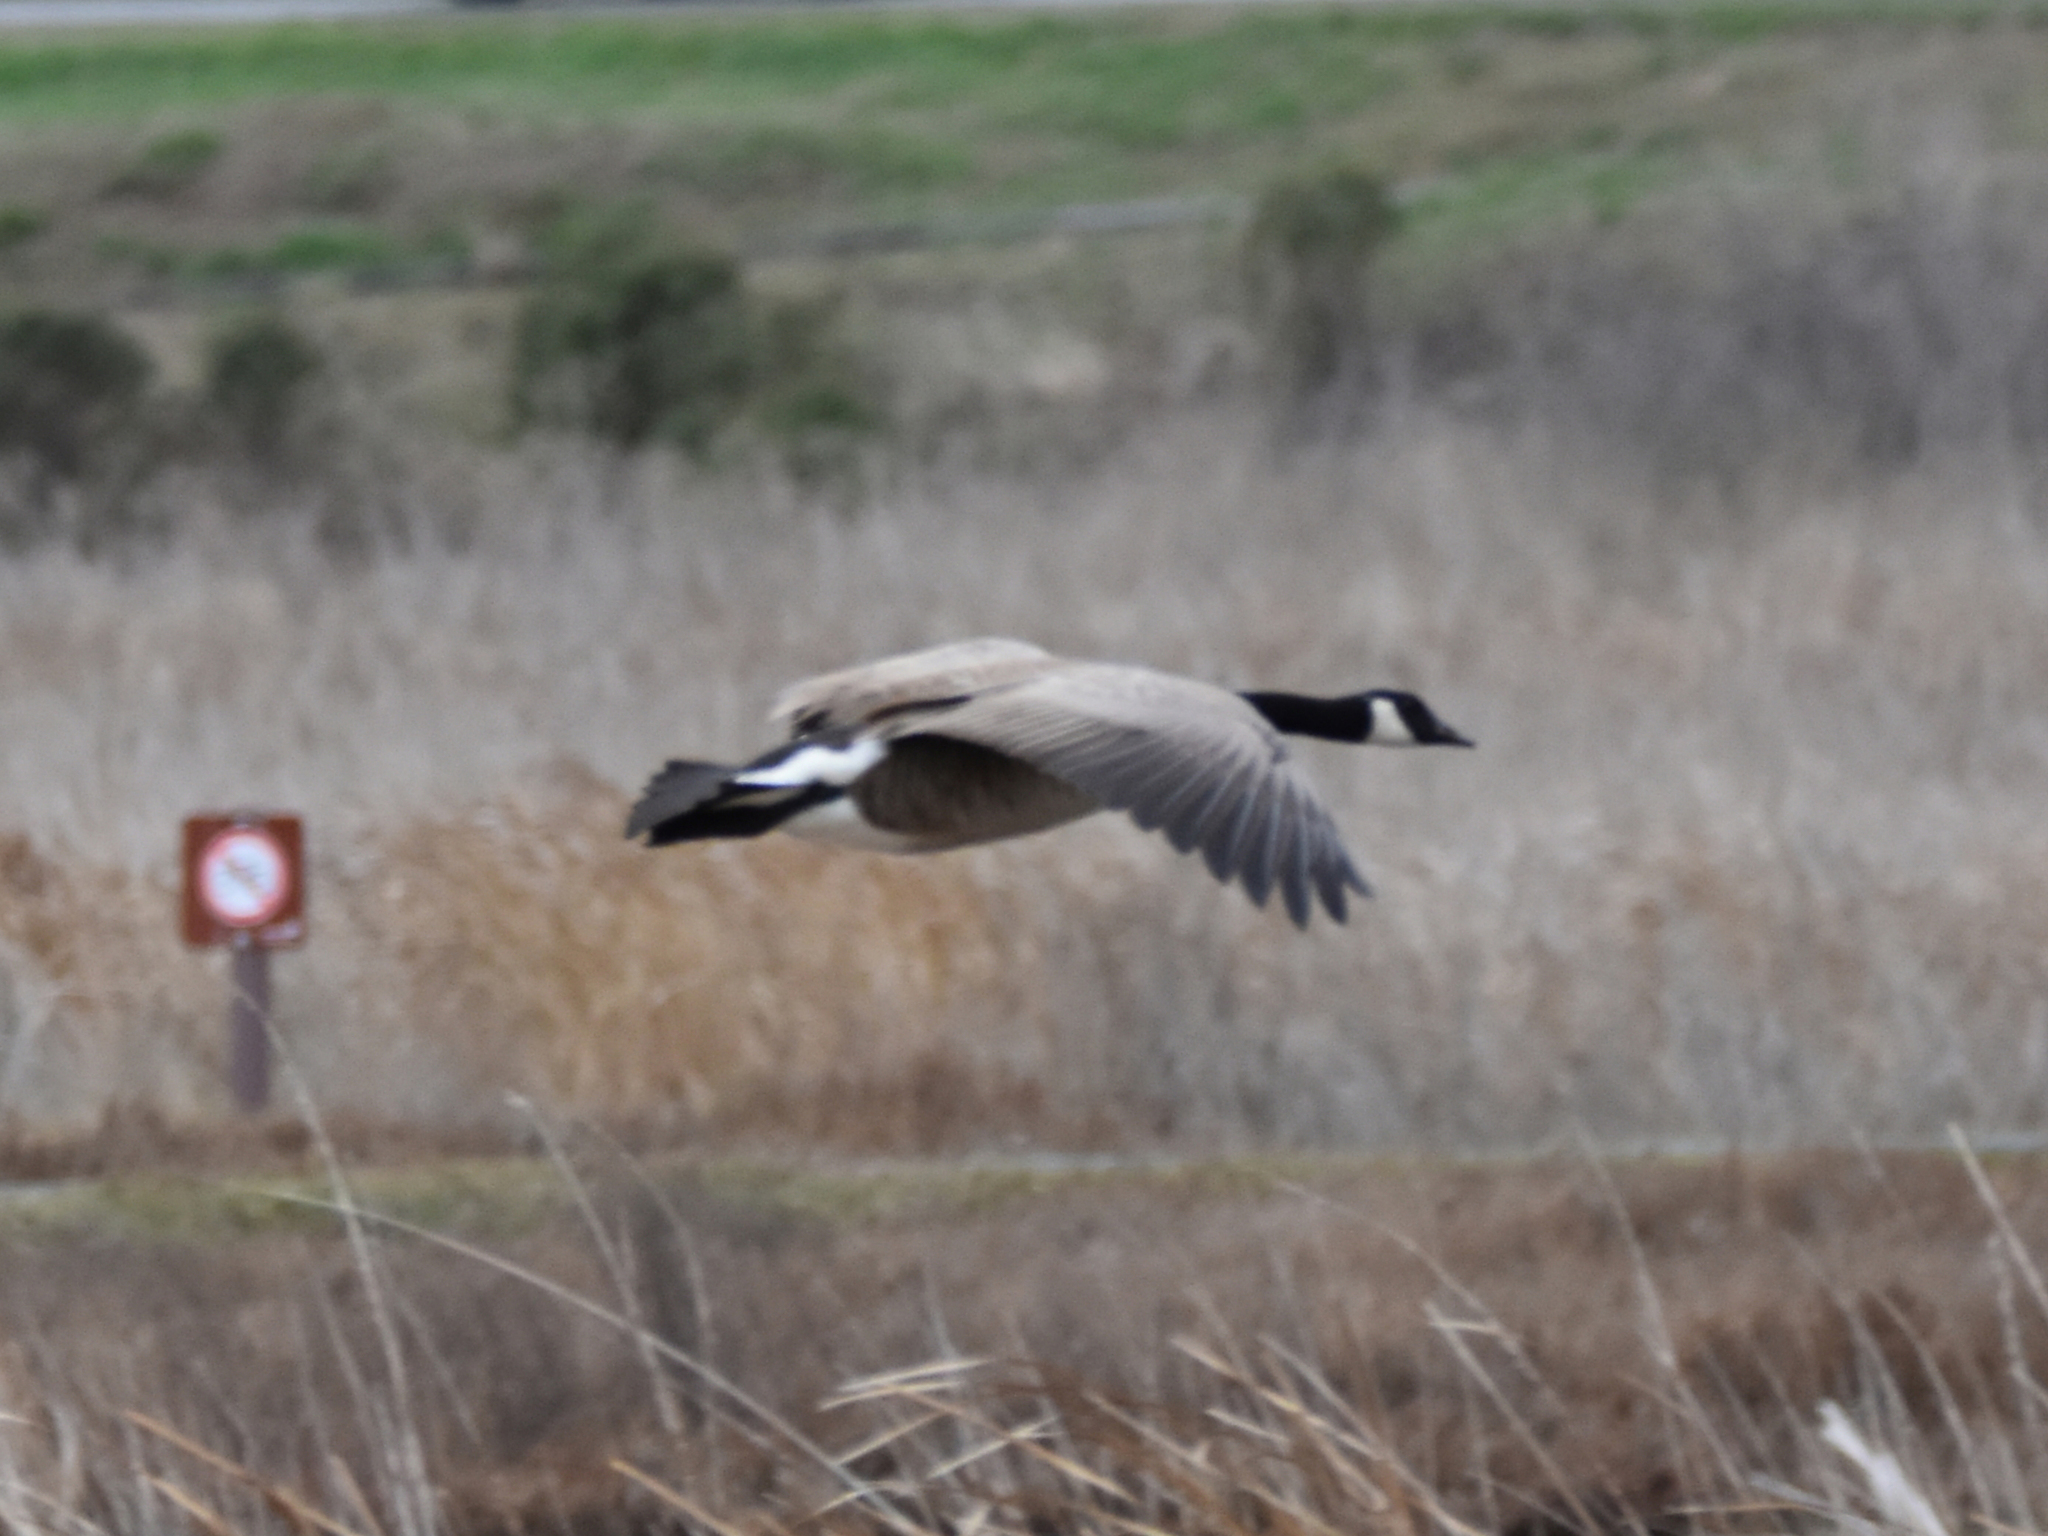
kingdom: Animalia
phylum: Chordata
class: Aves
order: Anseriformes
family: Anatidae
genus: Branta
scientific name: Branta canadensis
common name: Canada goose
